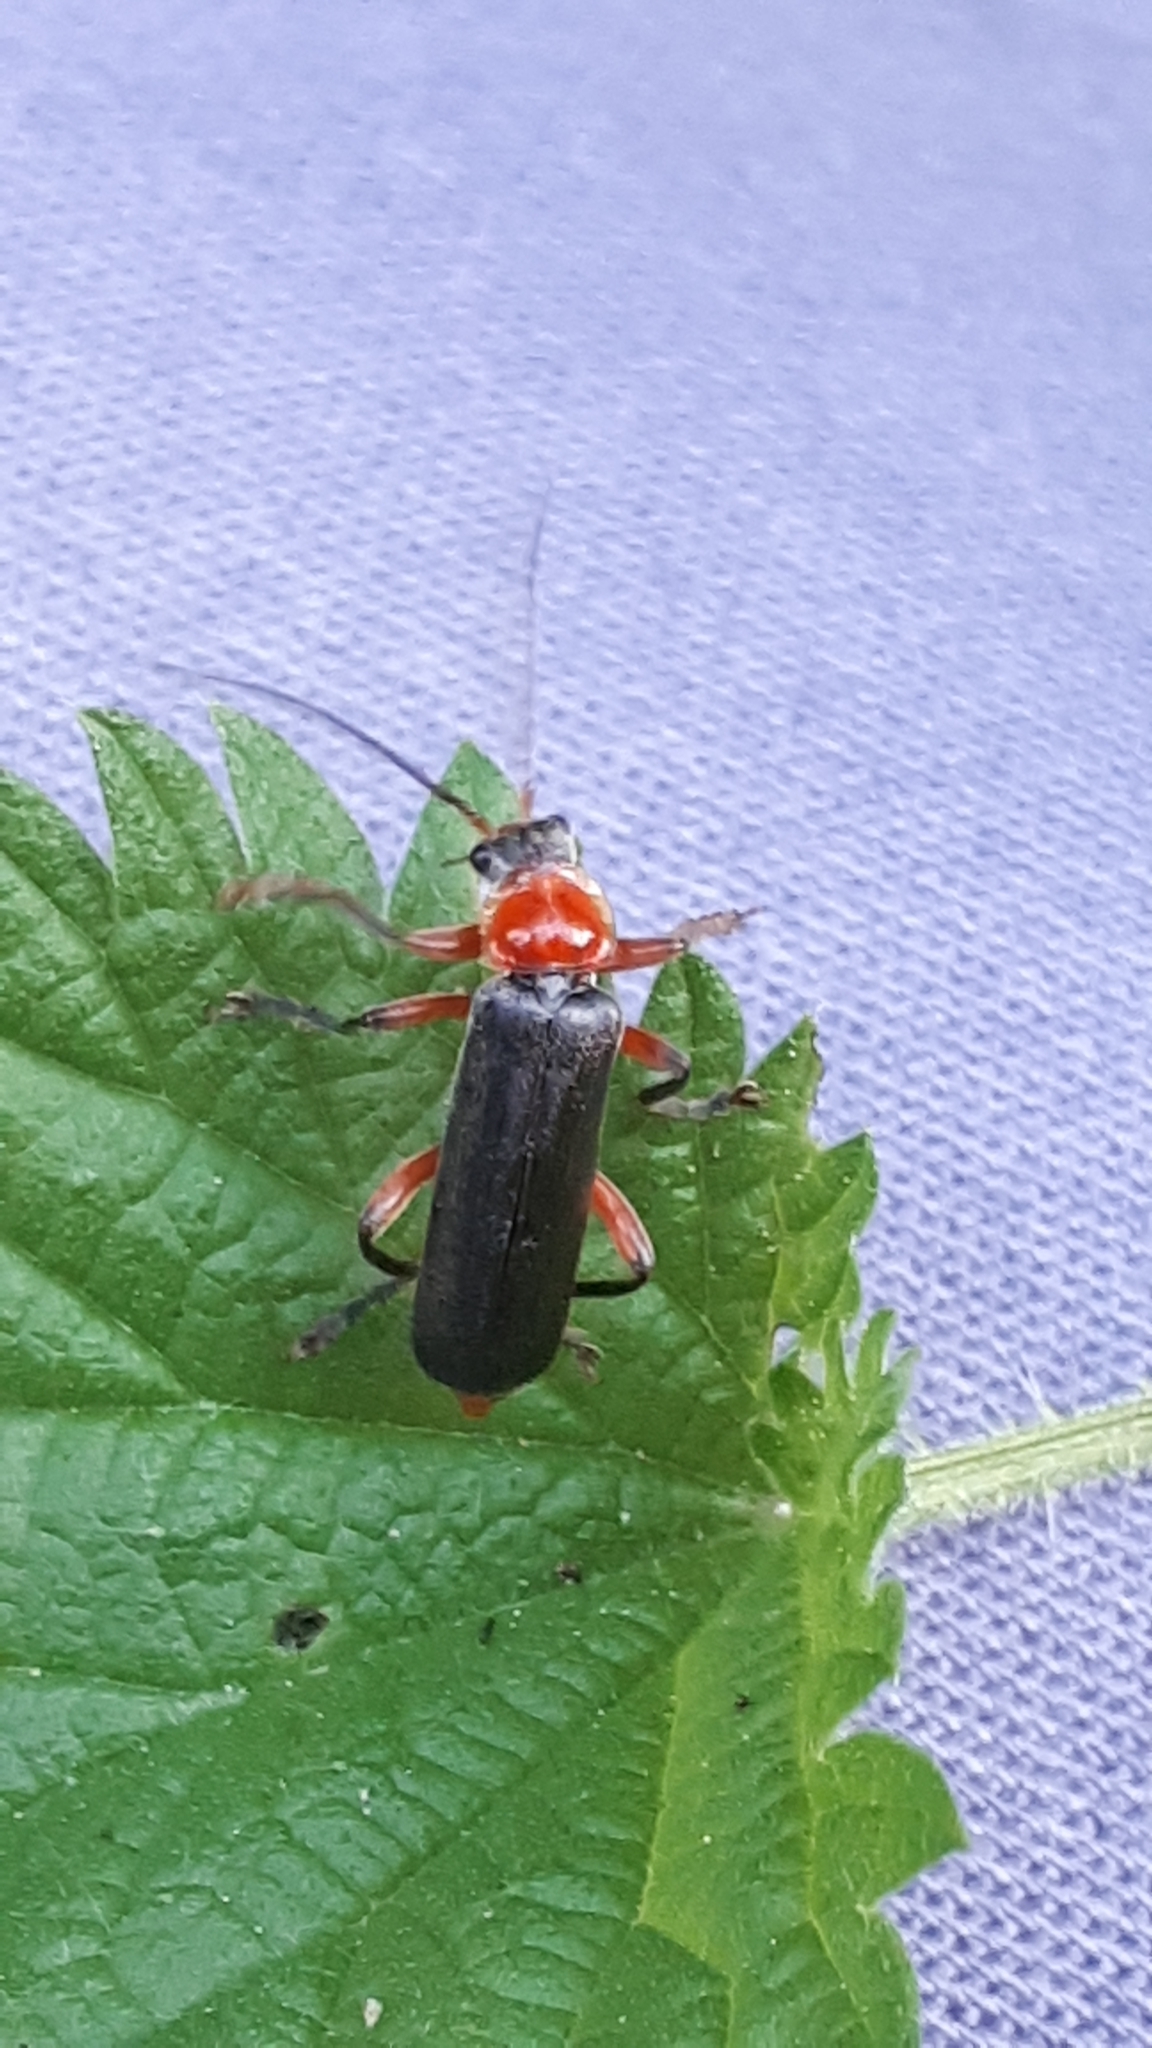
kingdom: Animalia
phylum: Arthropoda
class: Insecta
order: Coleoptera
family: Cantharidae
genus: Cantharis
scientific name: Cantharis pellucida
